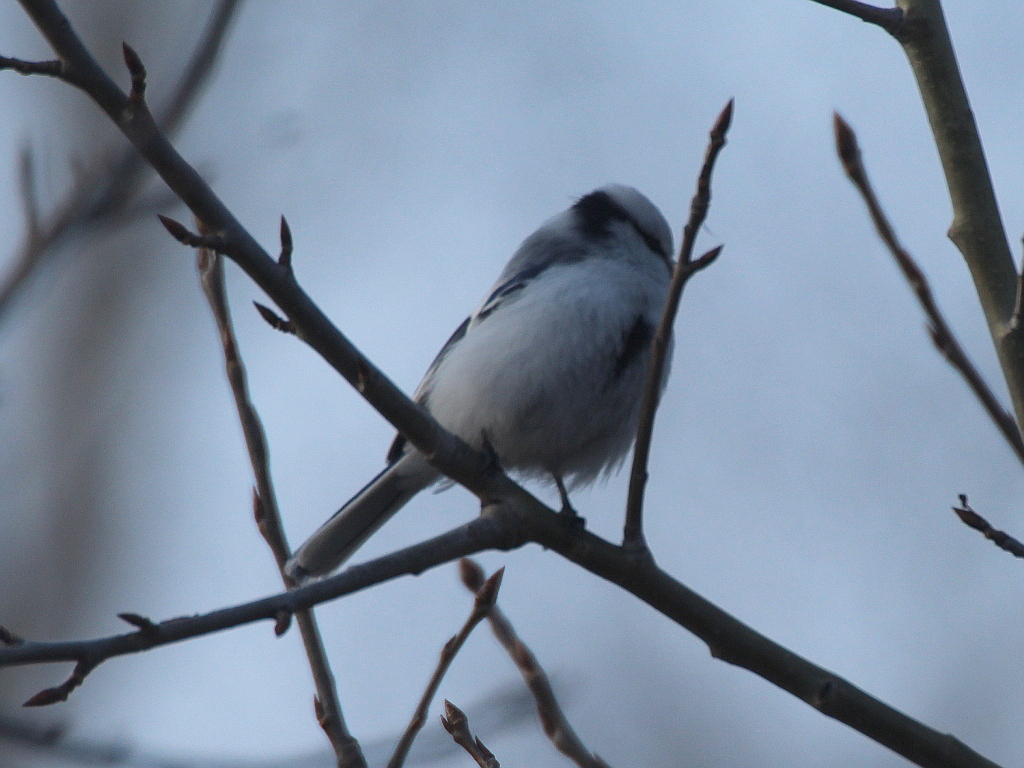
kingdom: Animalia
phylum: Chordata
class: Aves
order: Passeriformes
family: Paridae
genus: Cyanistes
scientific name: Cyanistes cyanus
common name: Azure tit
